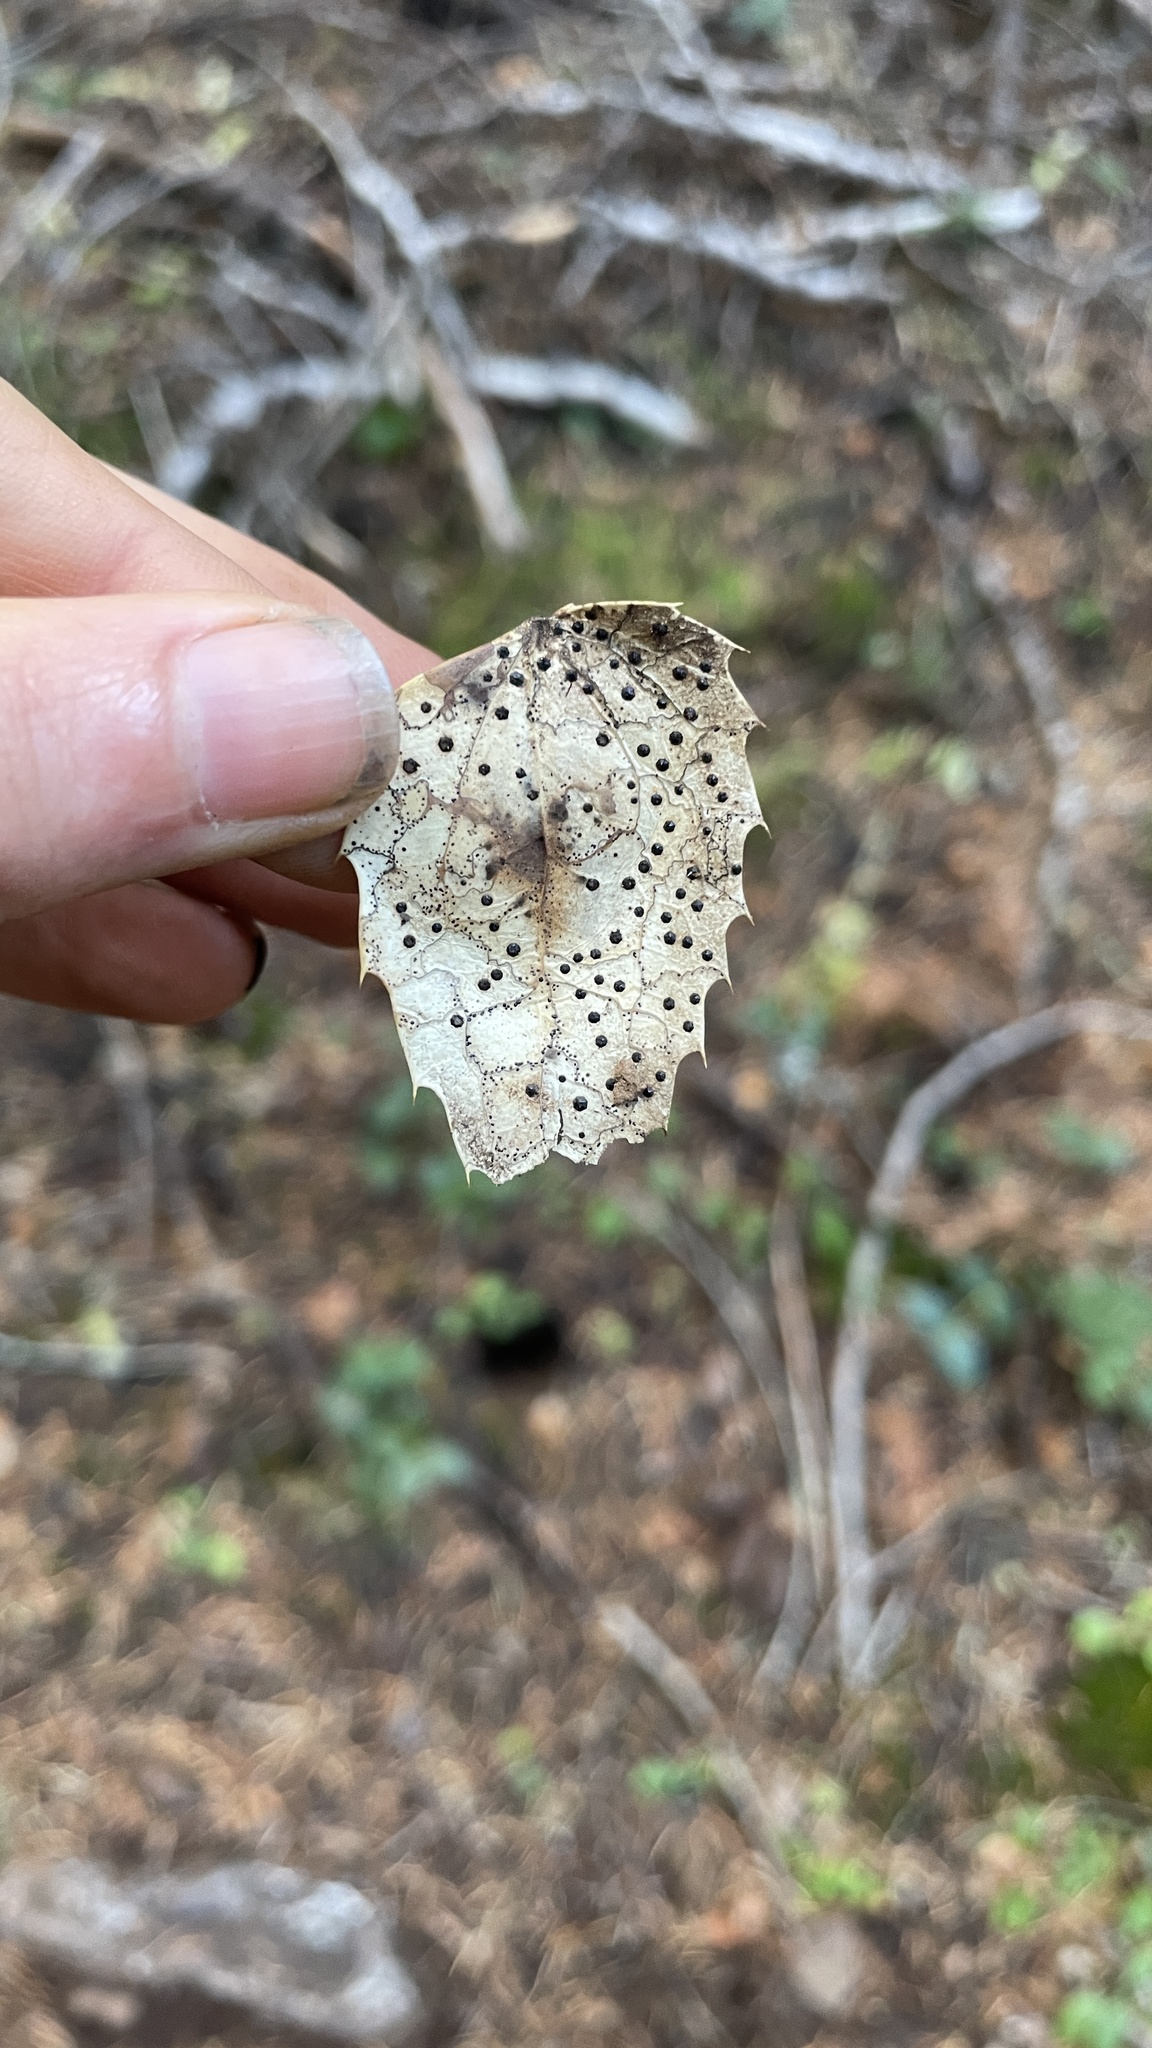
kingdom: Fungi
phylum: Ascomycota
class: Leotiomycetes
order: Rhytismatales
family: Rhytismataceae
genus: Coccomyces
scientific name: Coccomyces dentatus
